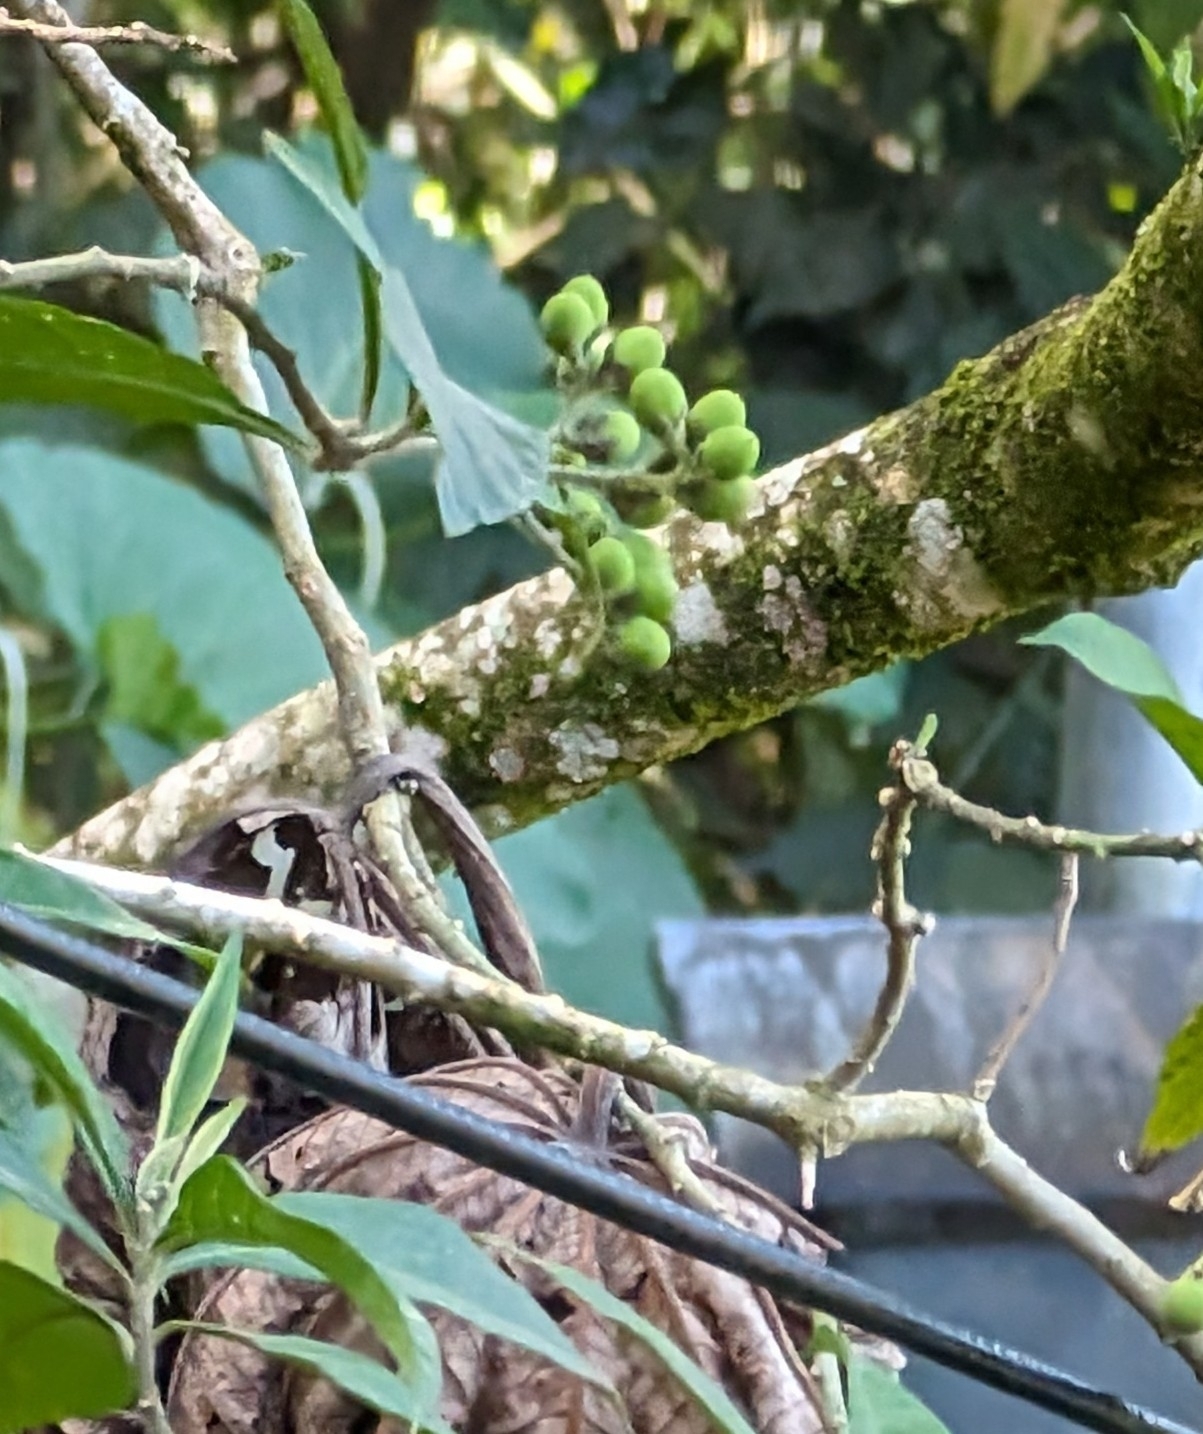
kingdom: Plantae
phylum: Tracheophyta
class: Magnoliopsida
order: Solanales
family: Solanaceae
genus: Solanum
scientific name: Solanum umbellatum
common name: Nightshade
